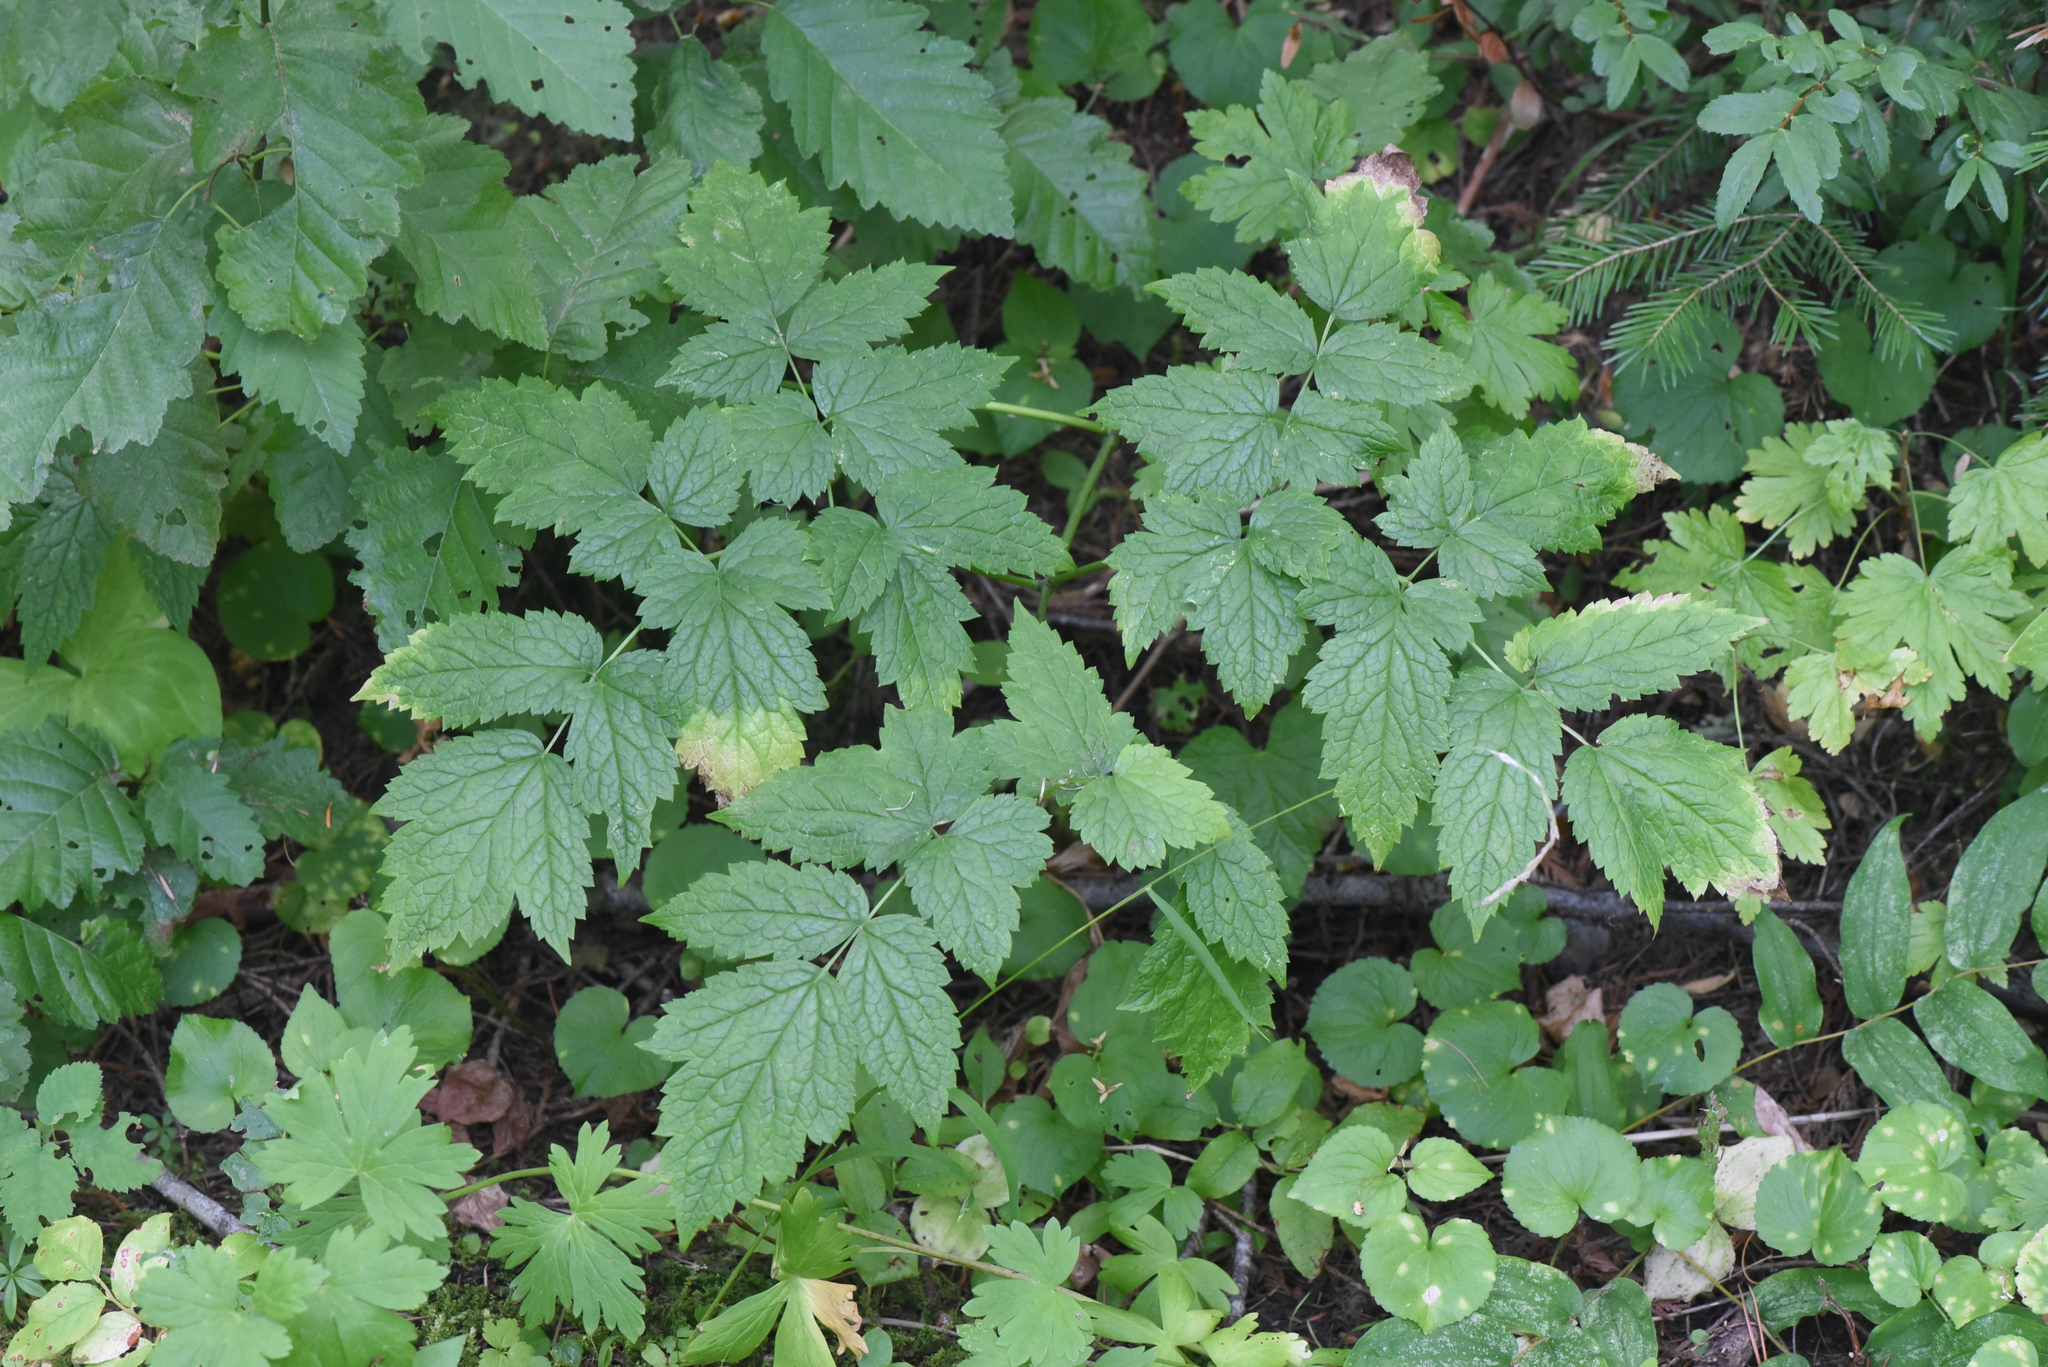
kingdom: Plantae
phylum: Tracheophyta
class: Magnoliopsida
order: Ranunculales
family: Ranunculaceae
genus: Actaea
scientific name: Actaea rubra
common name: Red baneberry
